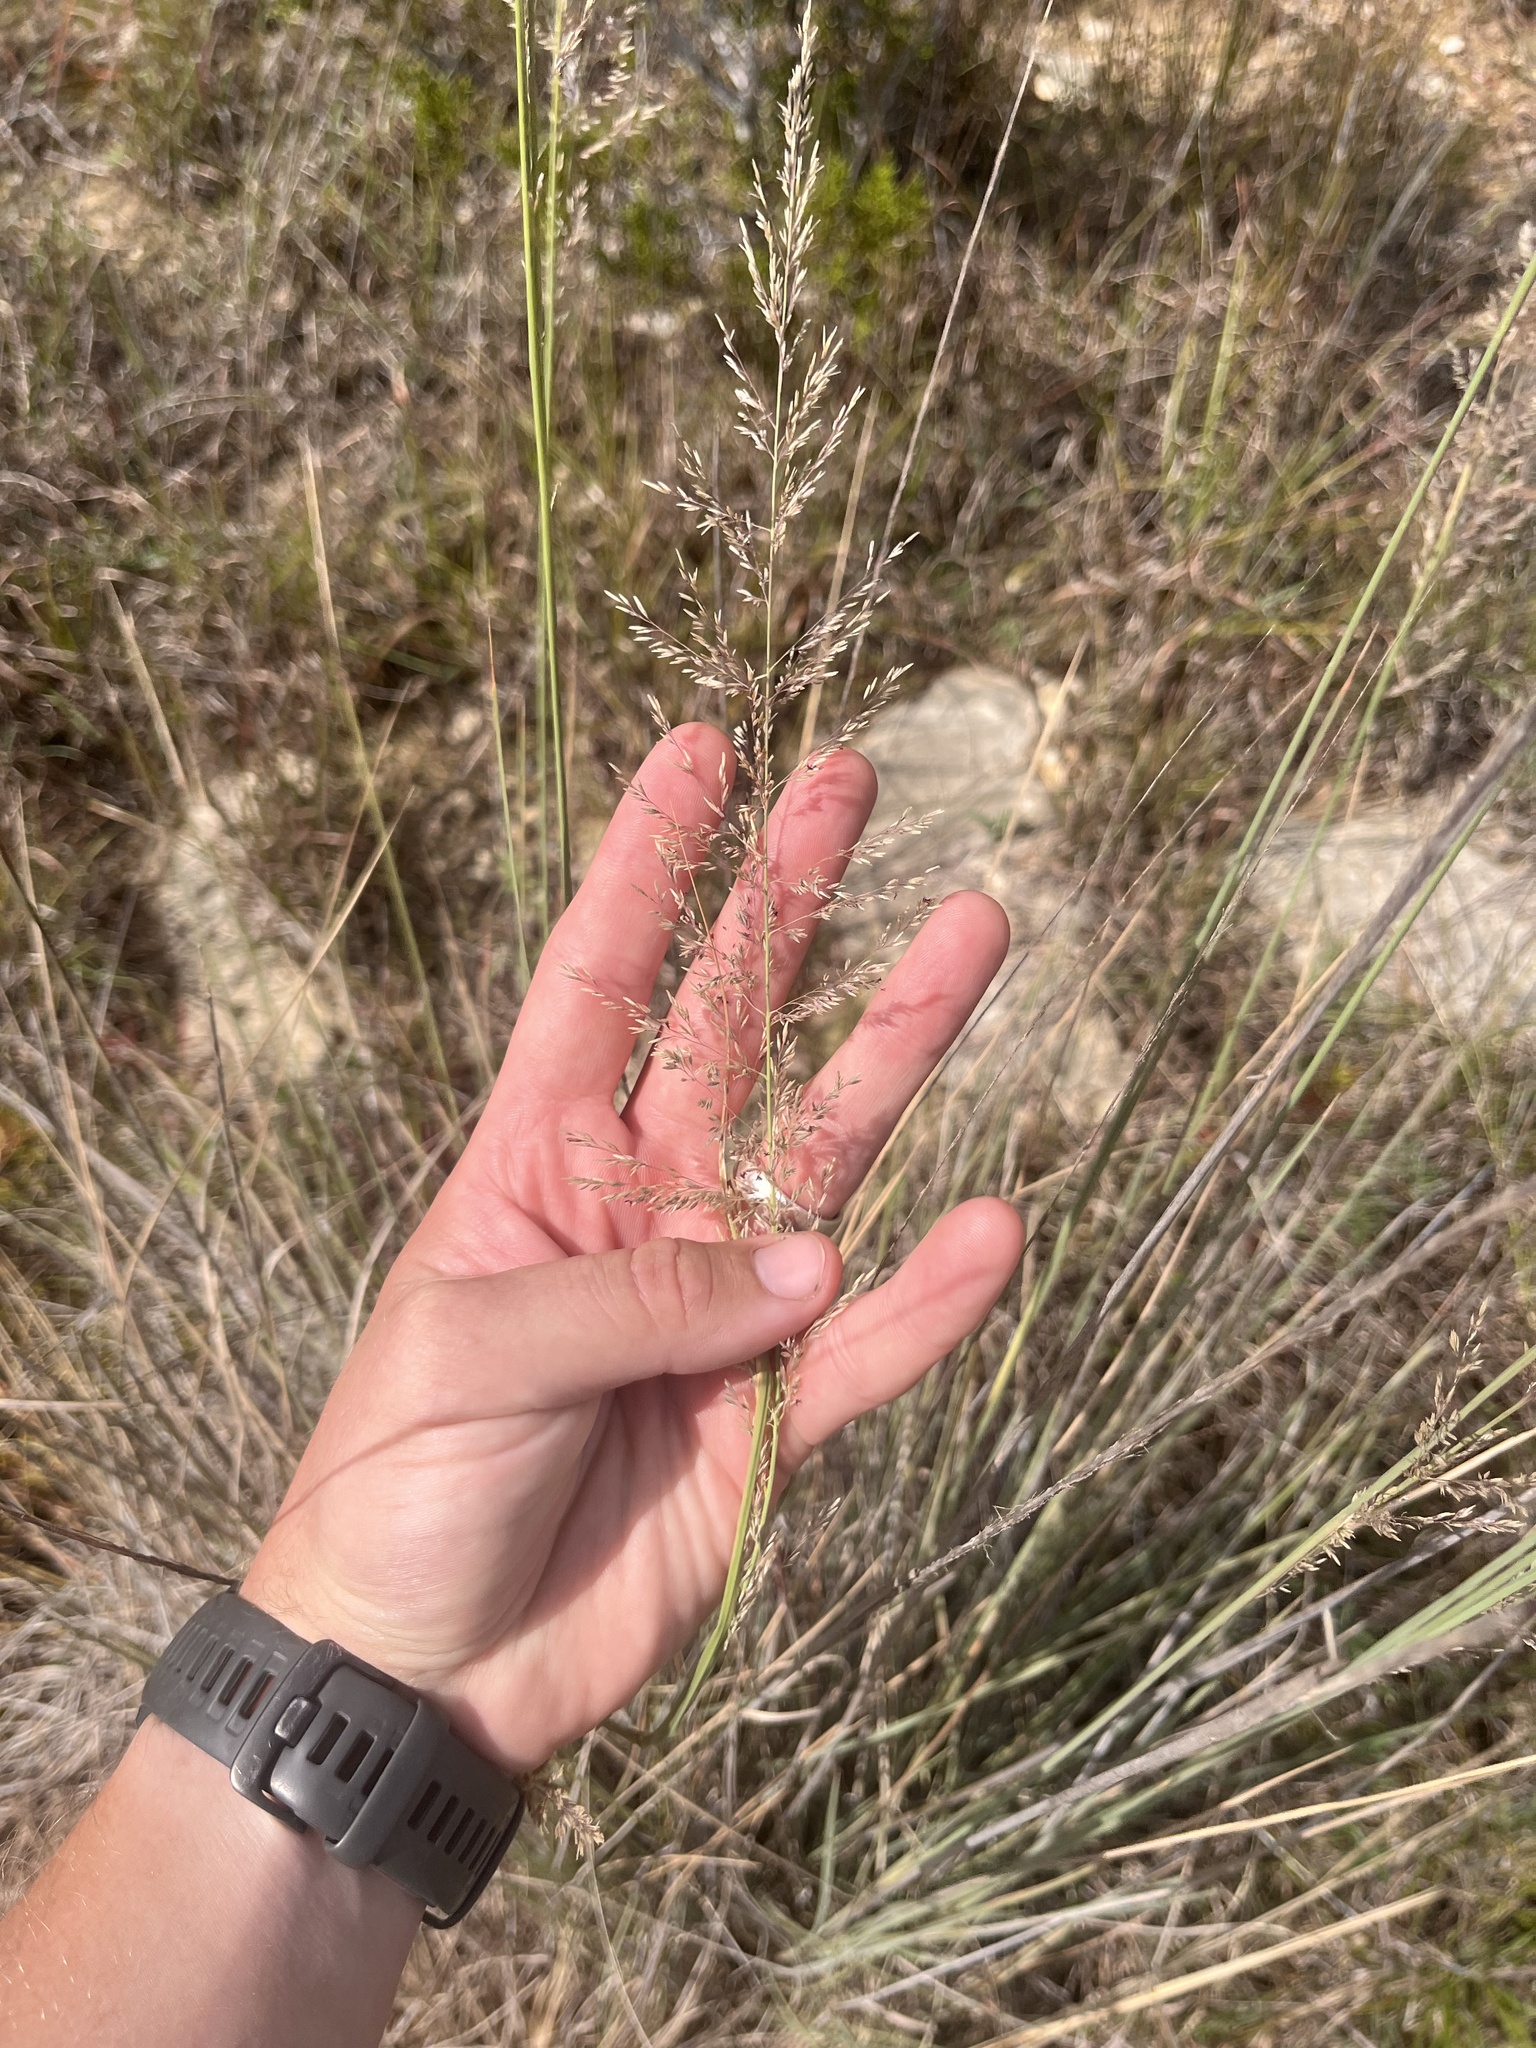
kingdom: Plantae
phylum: Tracheophyta
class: Liliopsida
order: Poales
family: Poaceae
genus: Muhlenbergia
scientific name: Muhlenbergia lindheimeri
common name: Lindheimer's muhly
